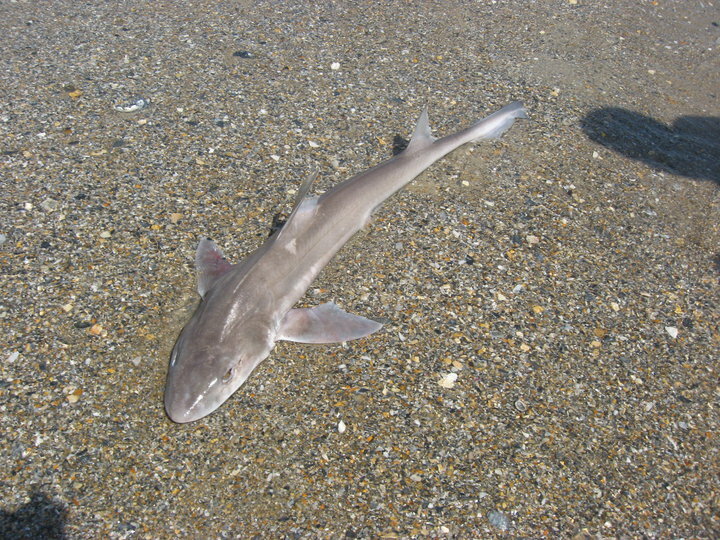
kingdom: Animalia
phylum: Chordata
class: Elasmobranchii
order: Carcharhiniformes
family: Triakidae
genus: Mustelus
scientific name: Mustelus canis
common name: Smooth dogfish
